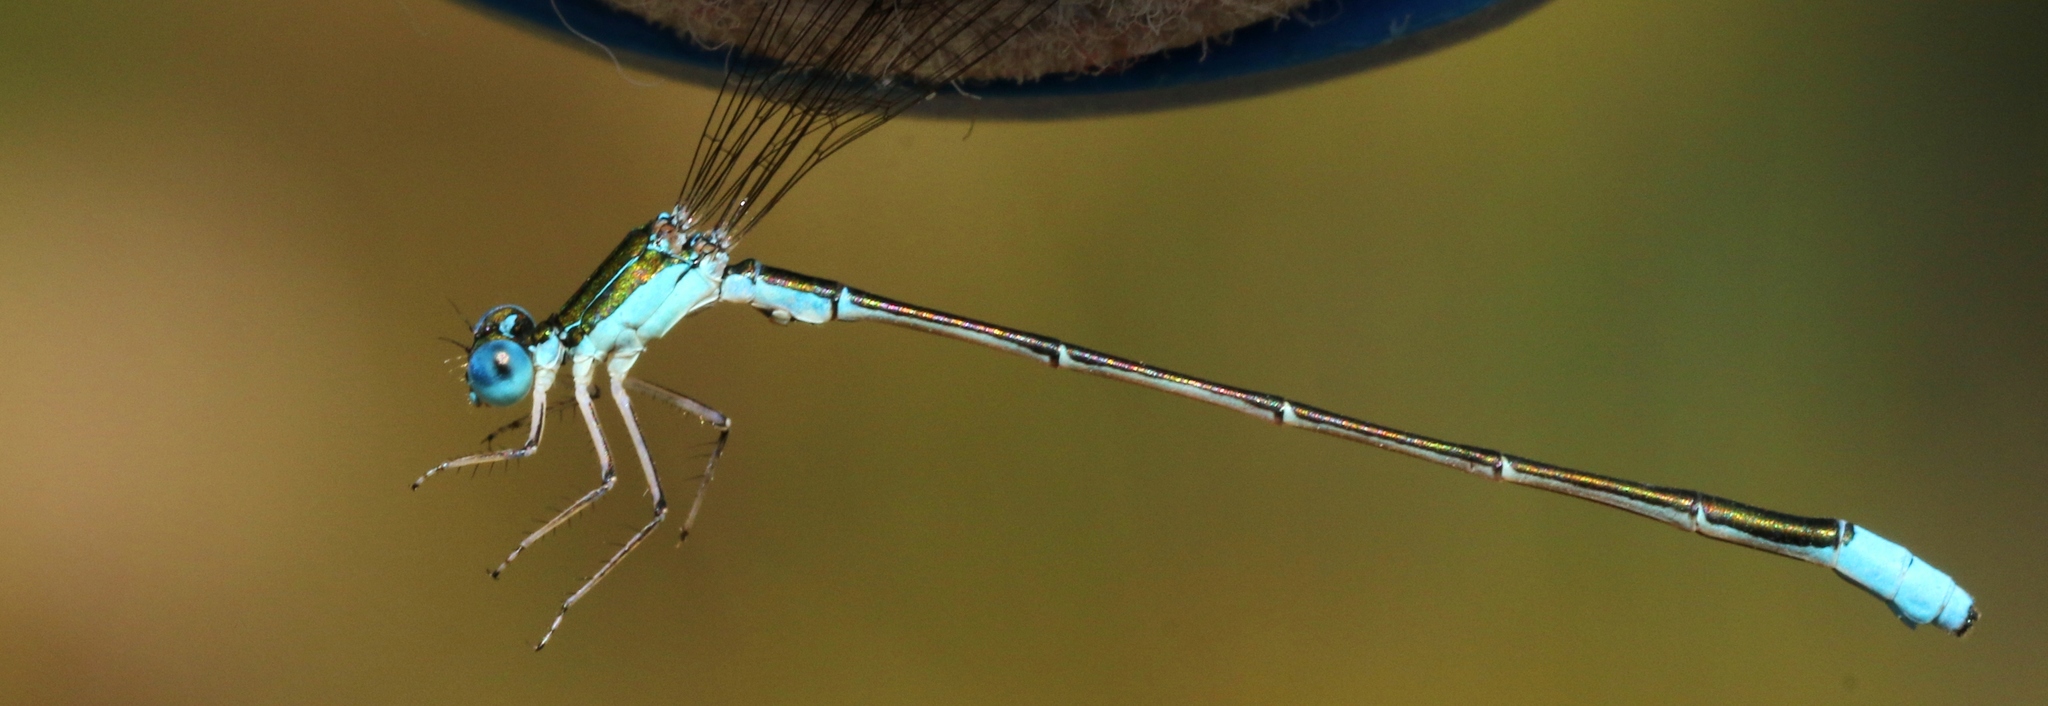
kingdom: Animalia
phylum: Arthropoda
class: Insecta
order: Odonata
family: Coenagrionidae
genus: Nehalennia
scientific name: Nehalennia gracilis
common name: Sphagnum sprite
